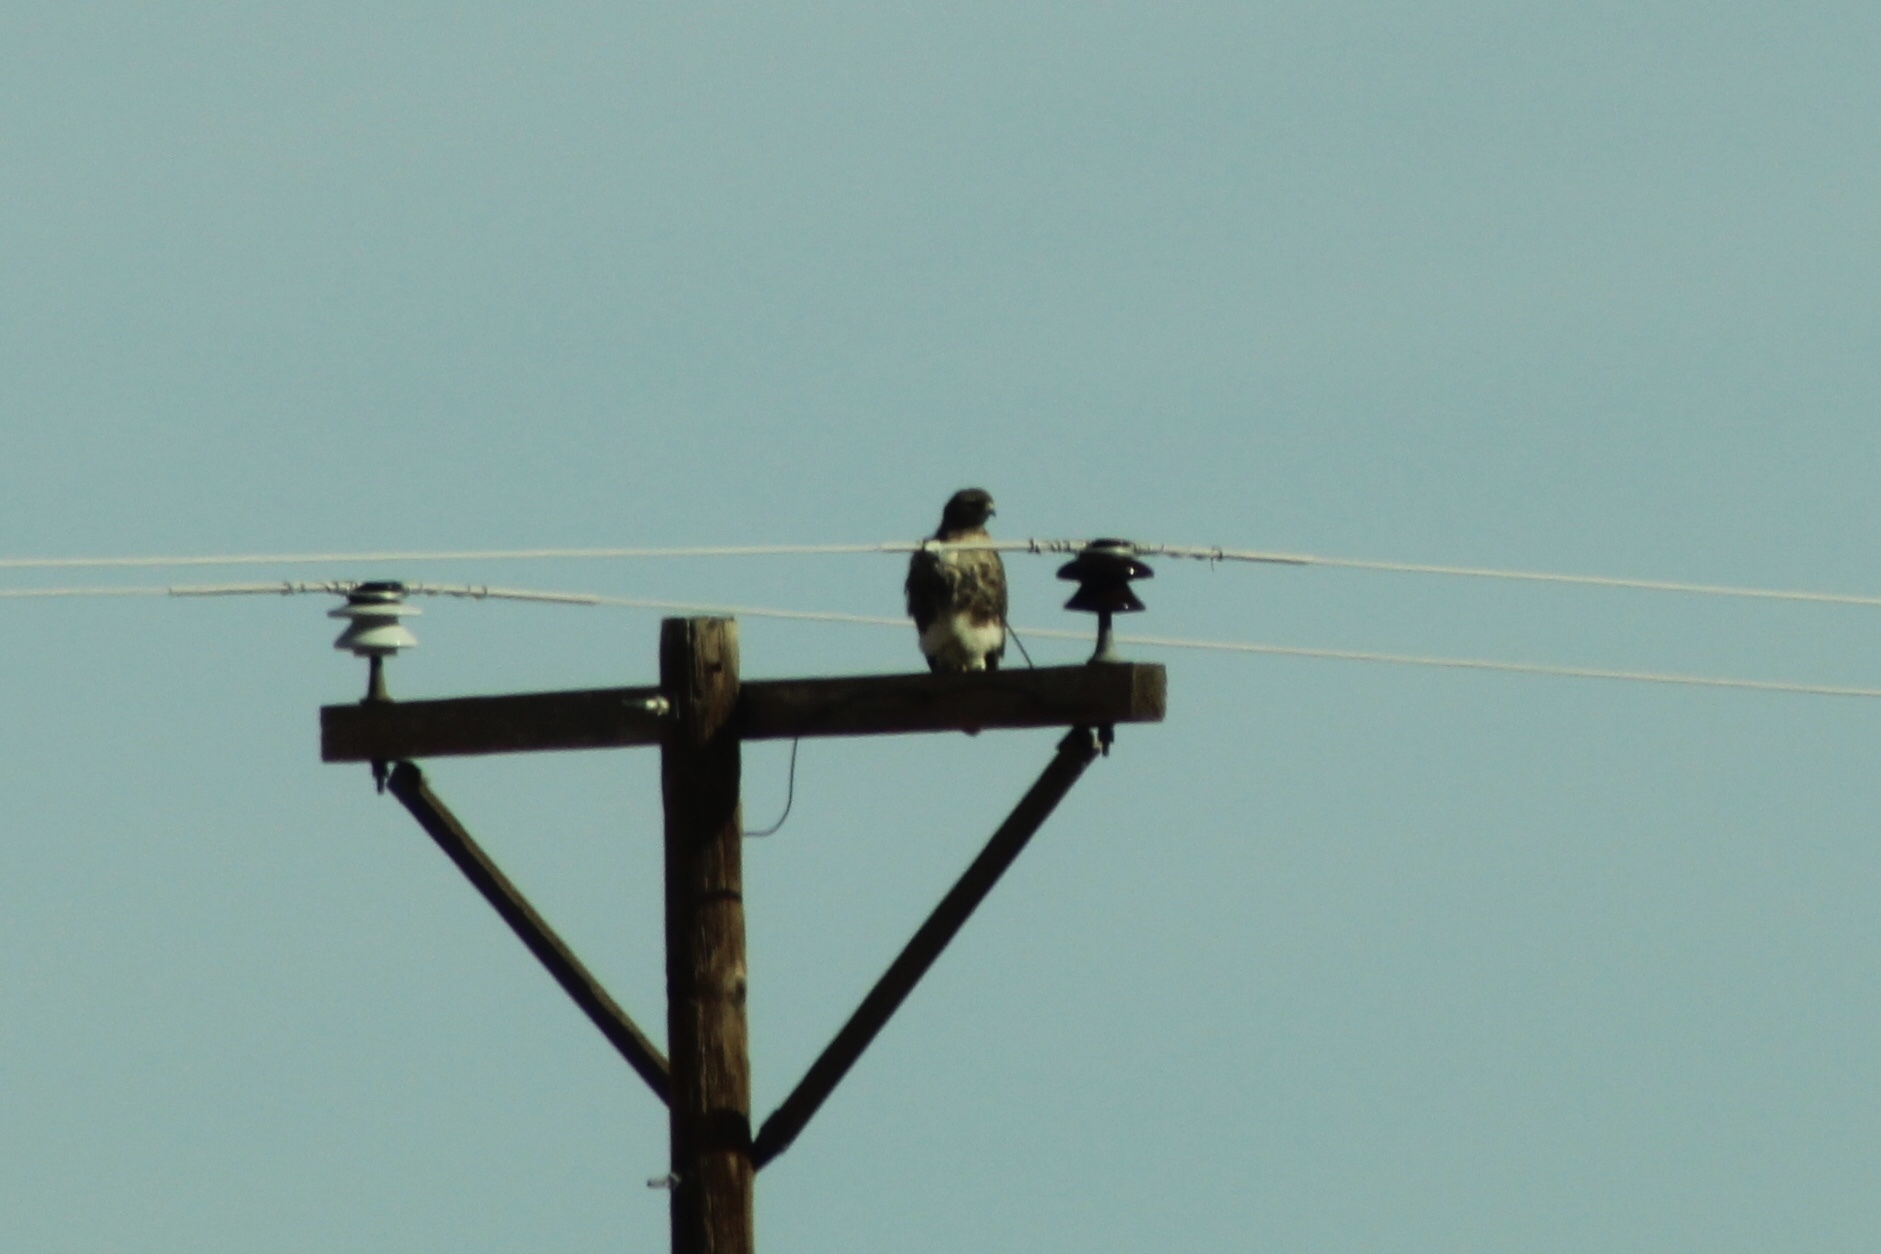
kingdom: Animalia
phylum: Chordata
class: Aves
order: Accipitriformes
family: Accipitridae
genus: Buteo
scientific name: Buteo jamaicensis
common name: Red-tailed hawk
